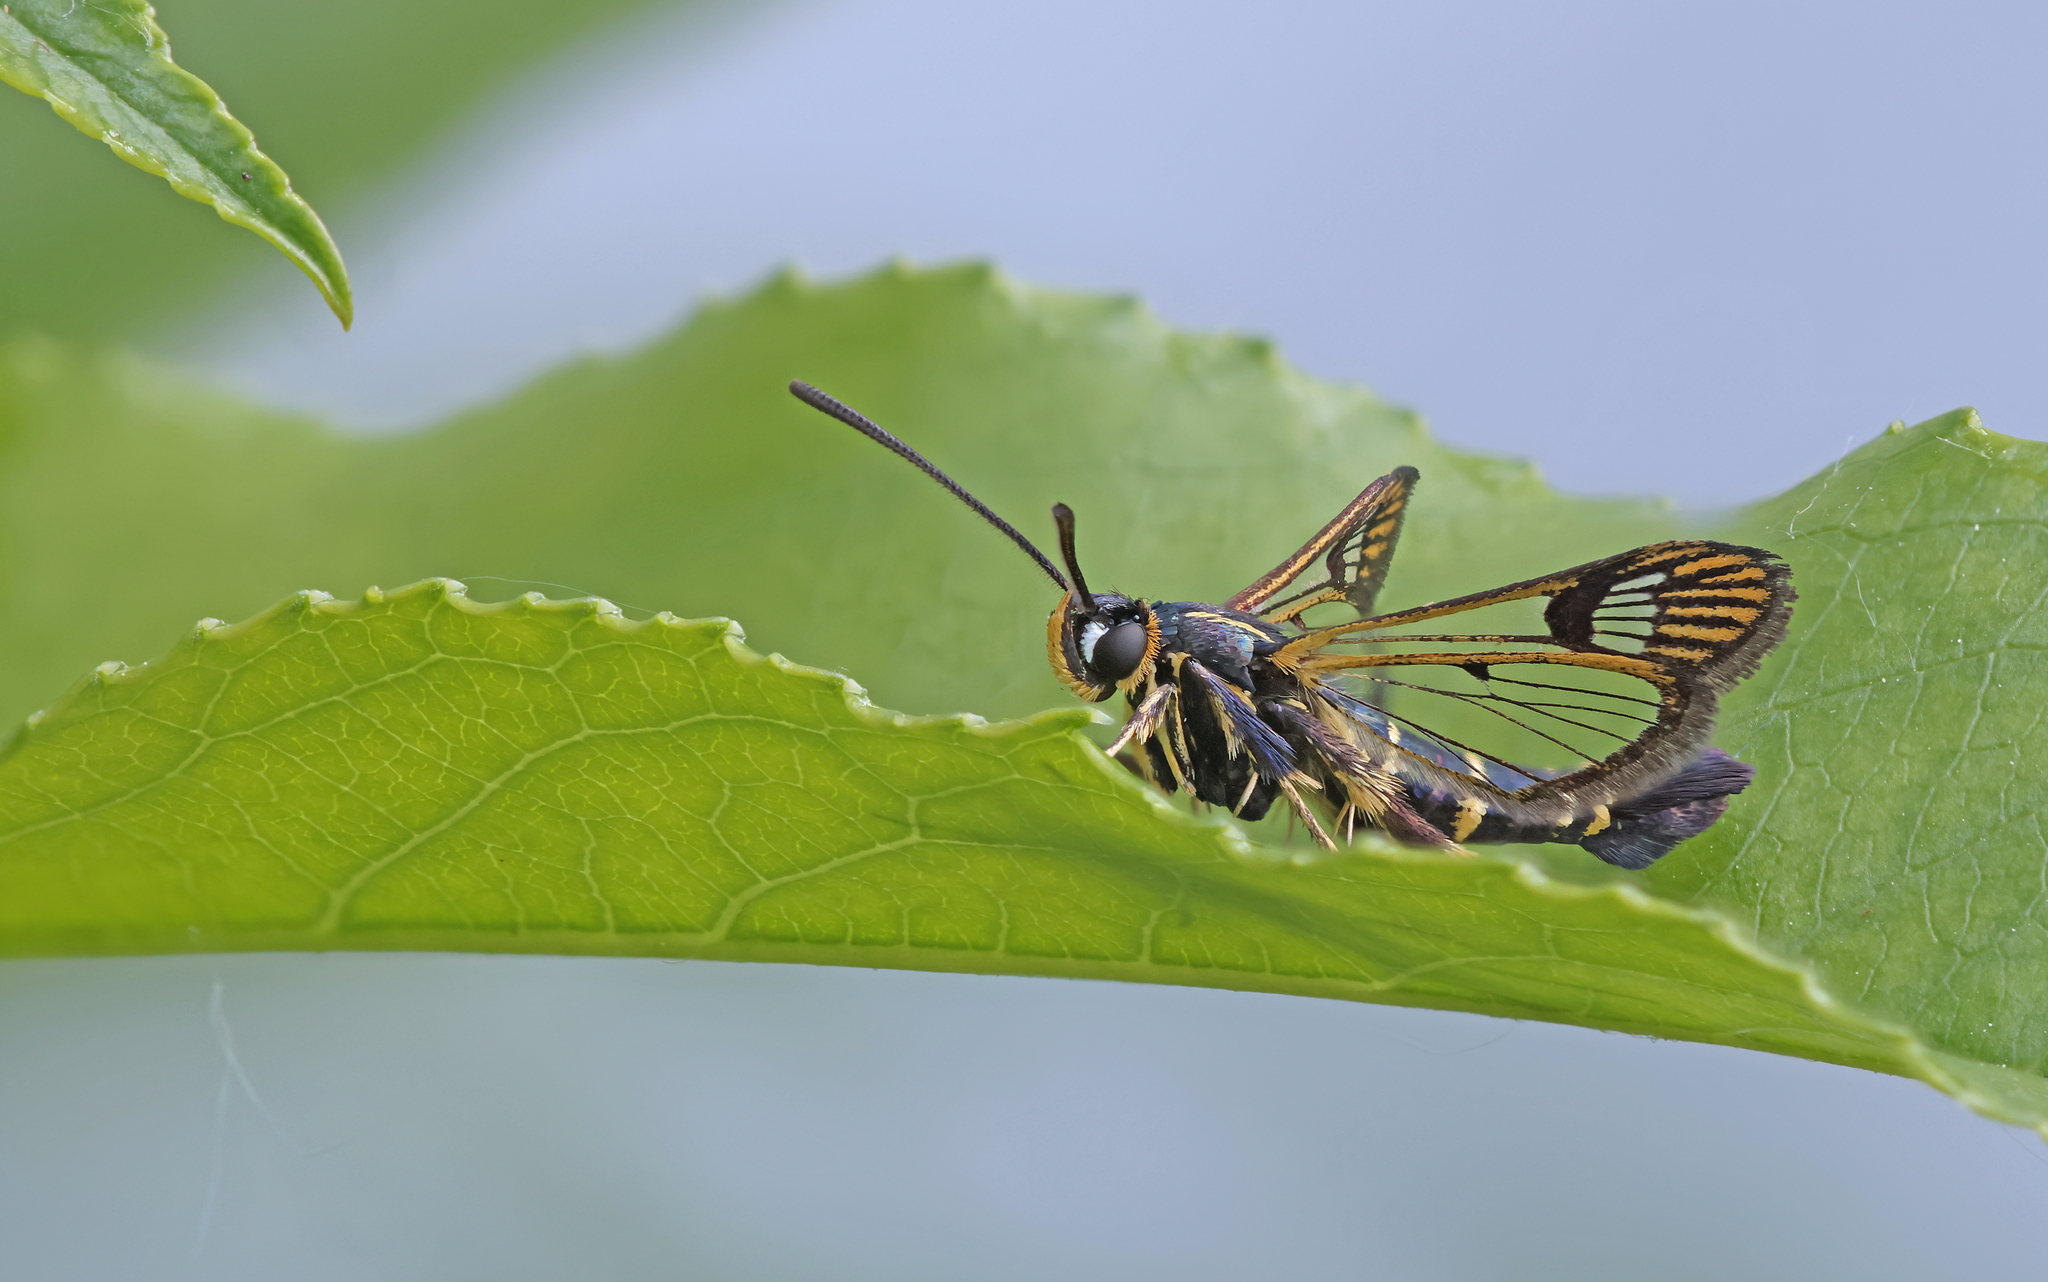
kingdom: Animalia
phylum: Arthropoda
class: Insecta
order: Lepidoptera
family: Sesiidae
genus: Synanthedon
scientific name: Synanthedon tipuliformis
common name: Currant clearwing
